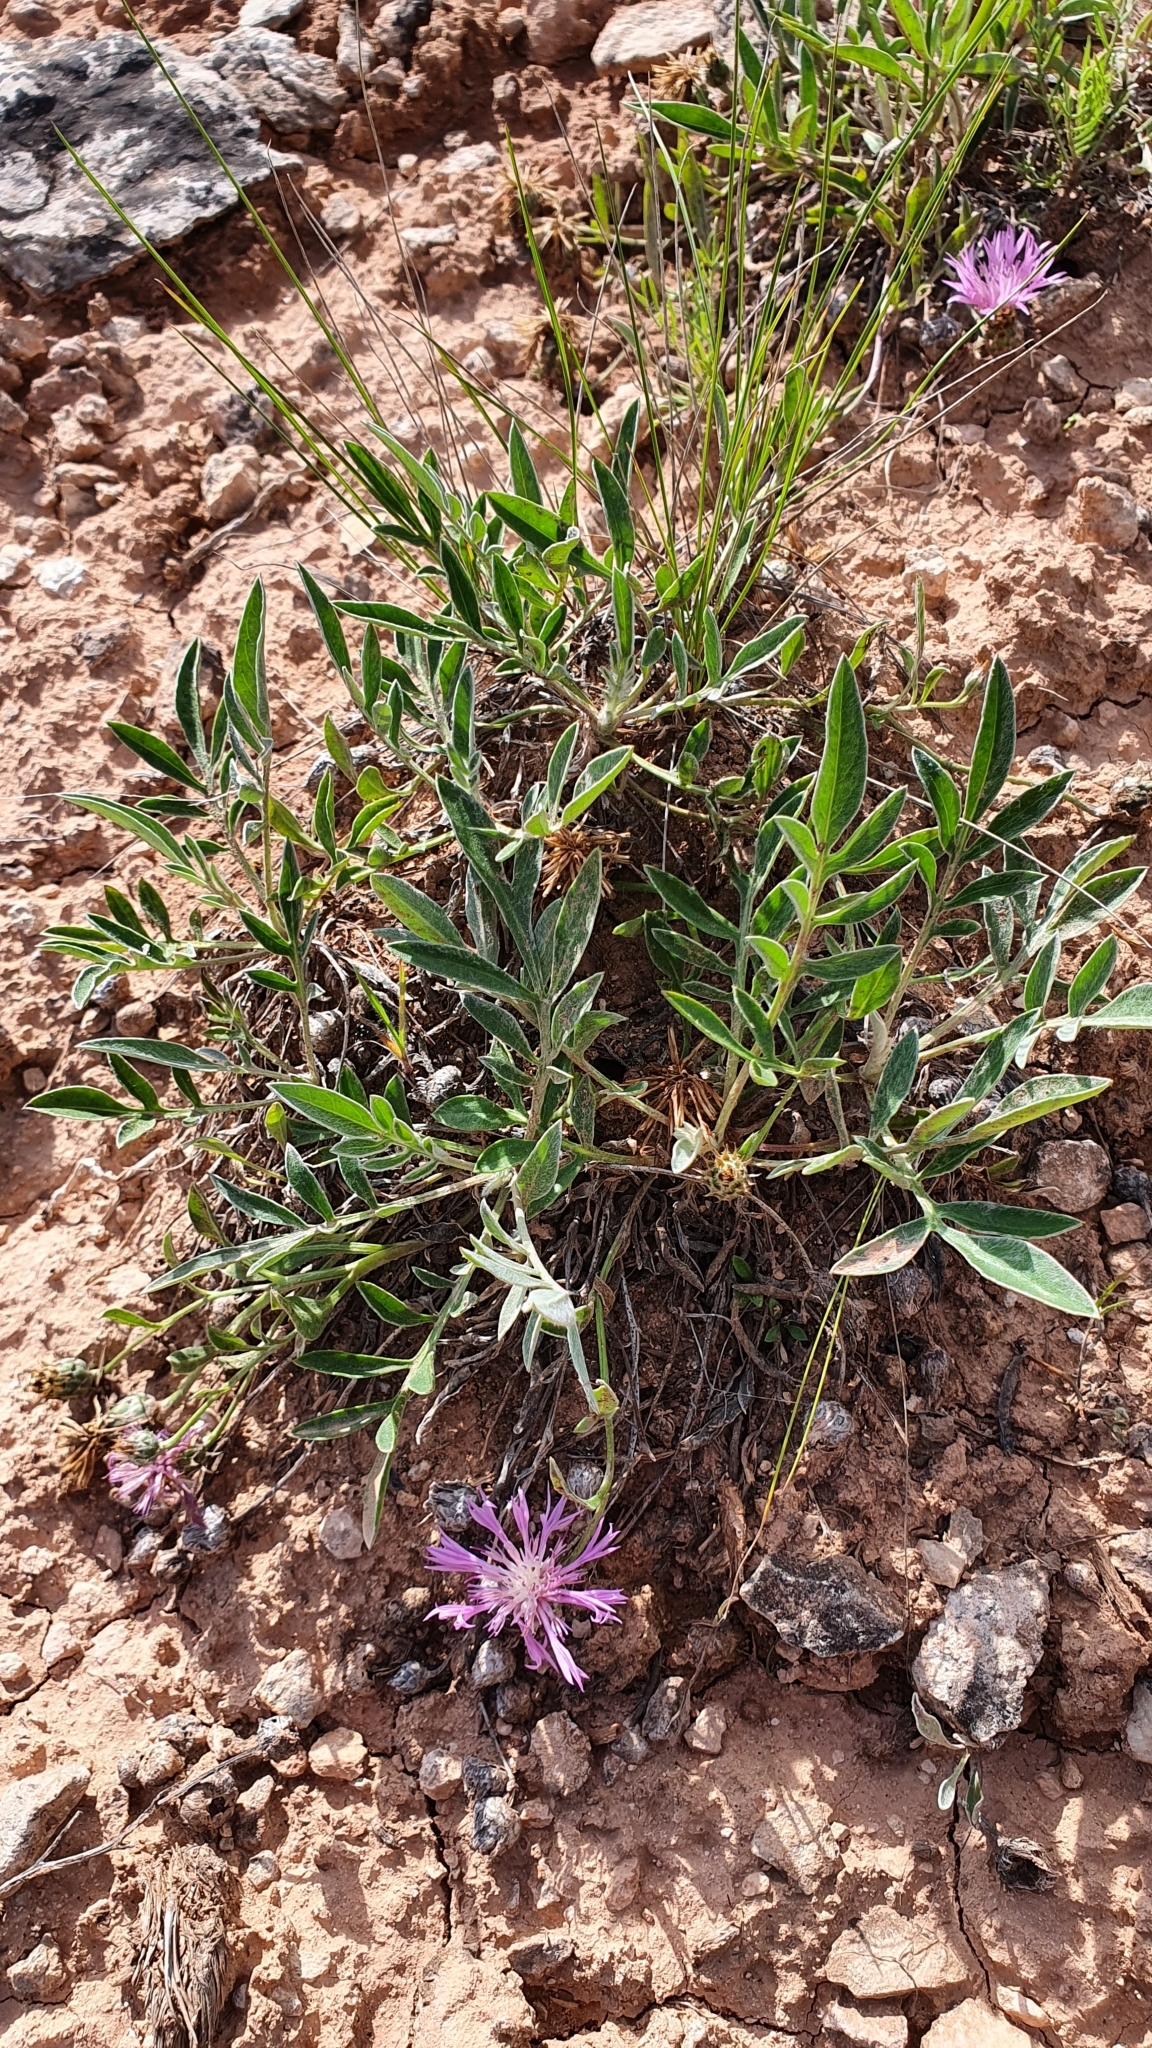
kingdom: Plantae
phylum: Tracheophyta
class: Magnoliopsida
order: Asterales
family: Asteraceae
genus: Psephellus
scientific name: Psephellus sumensis
